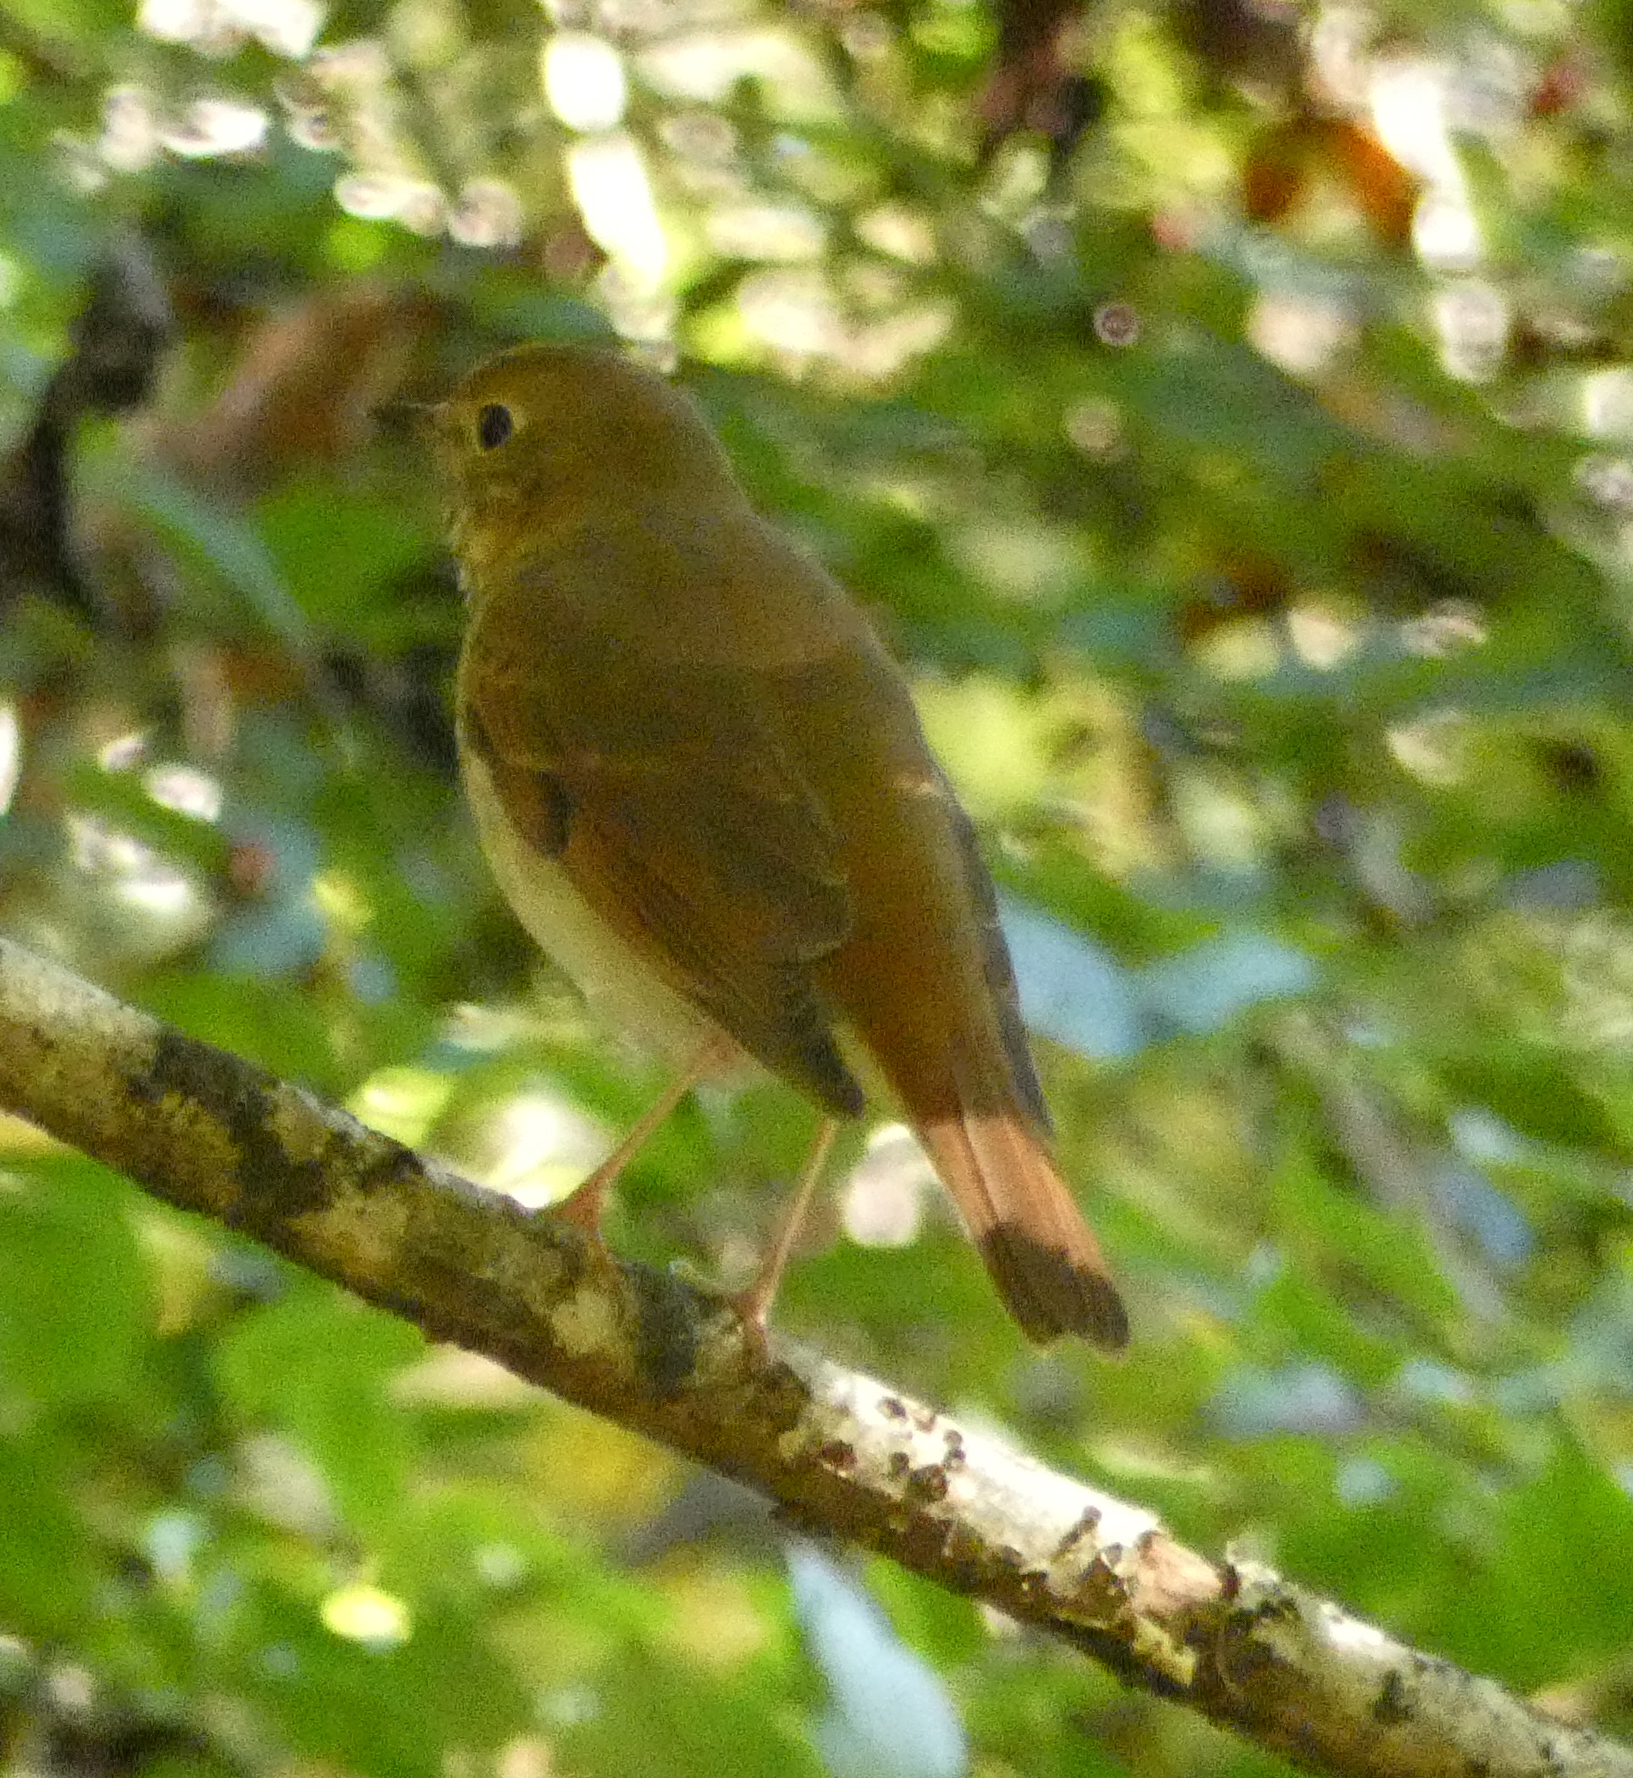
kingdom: Animalia
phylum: Chordata
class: Aves
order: Passeriformes
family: Turdidae
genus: Catharus
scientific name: Catharus guttatus
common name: Hermit thrush
